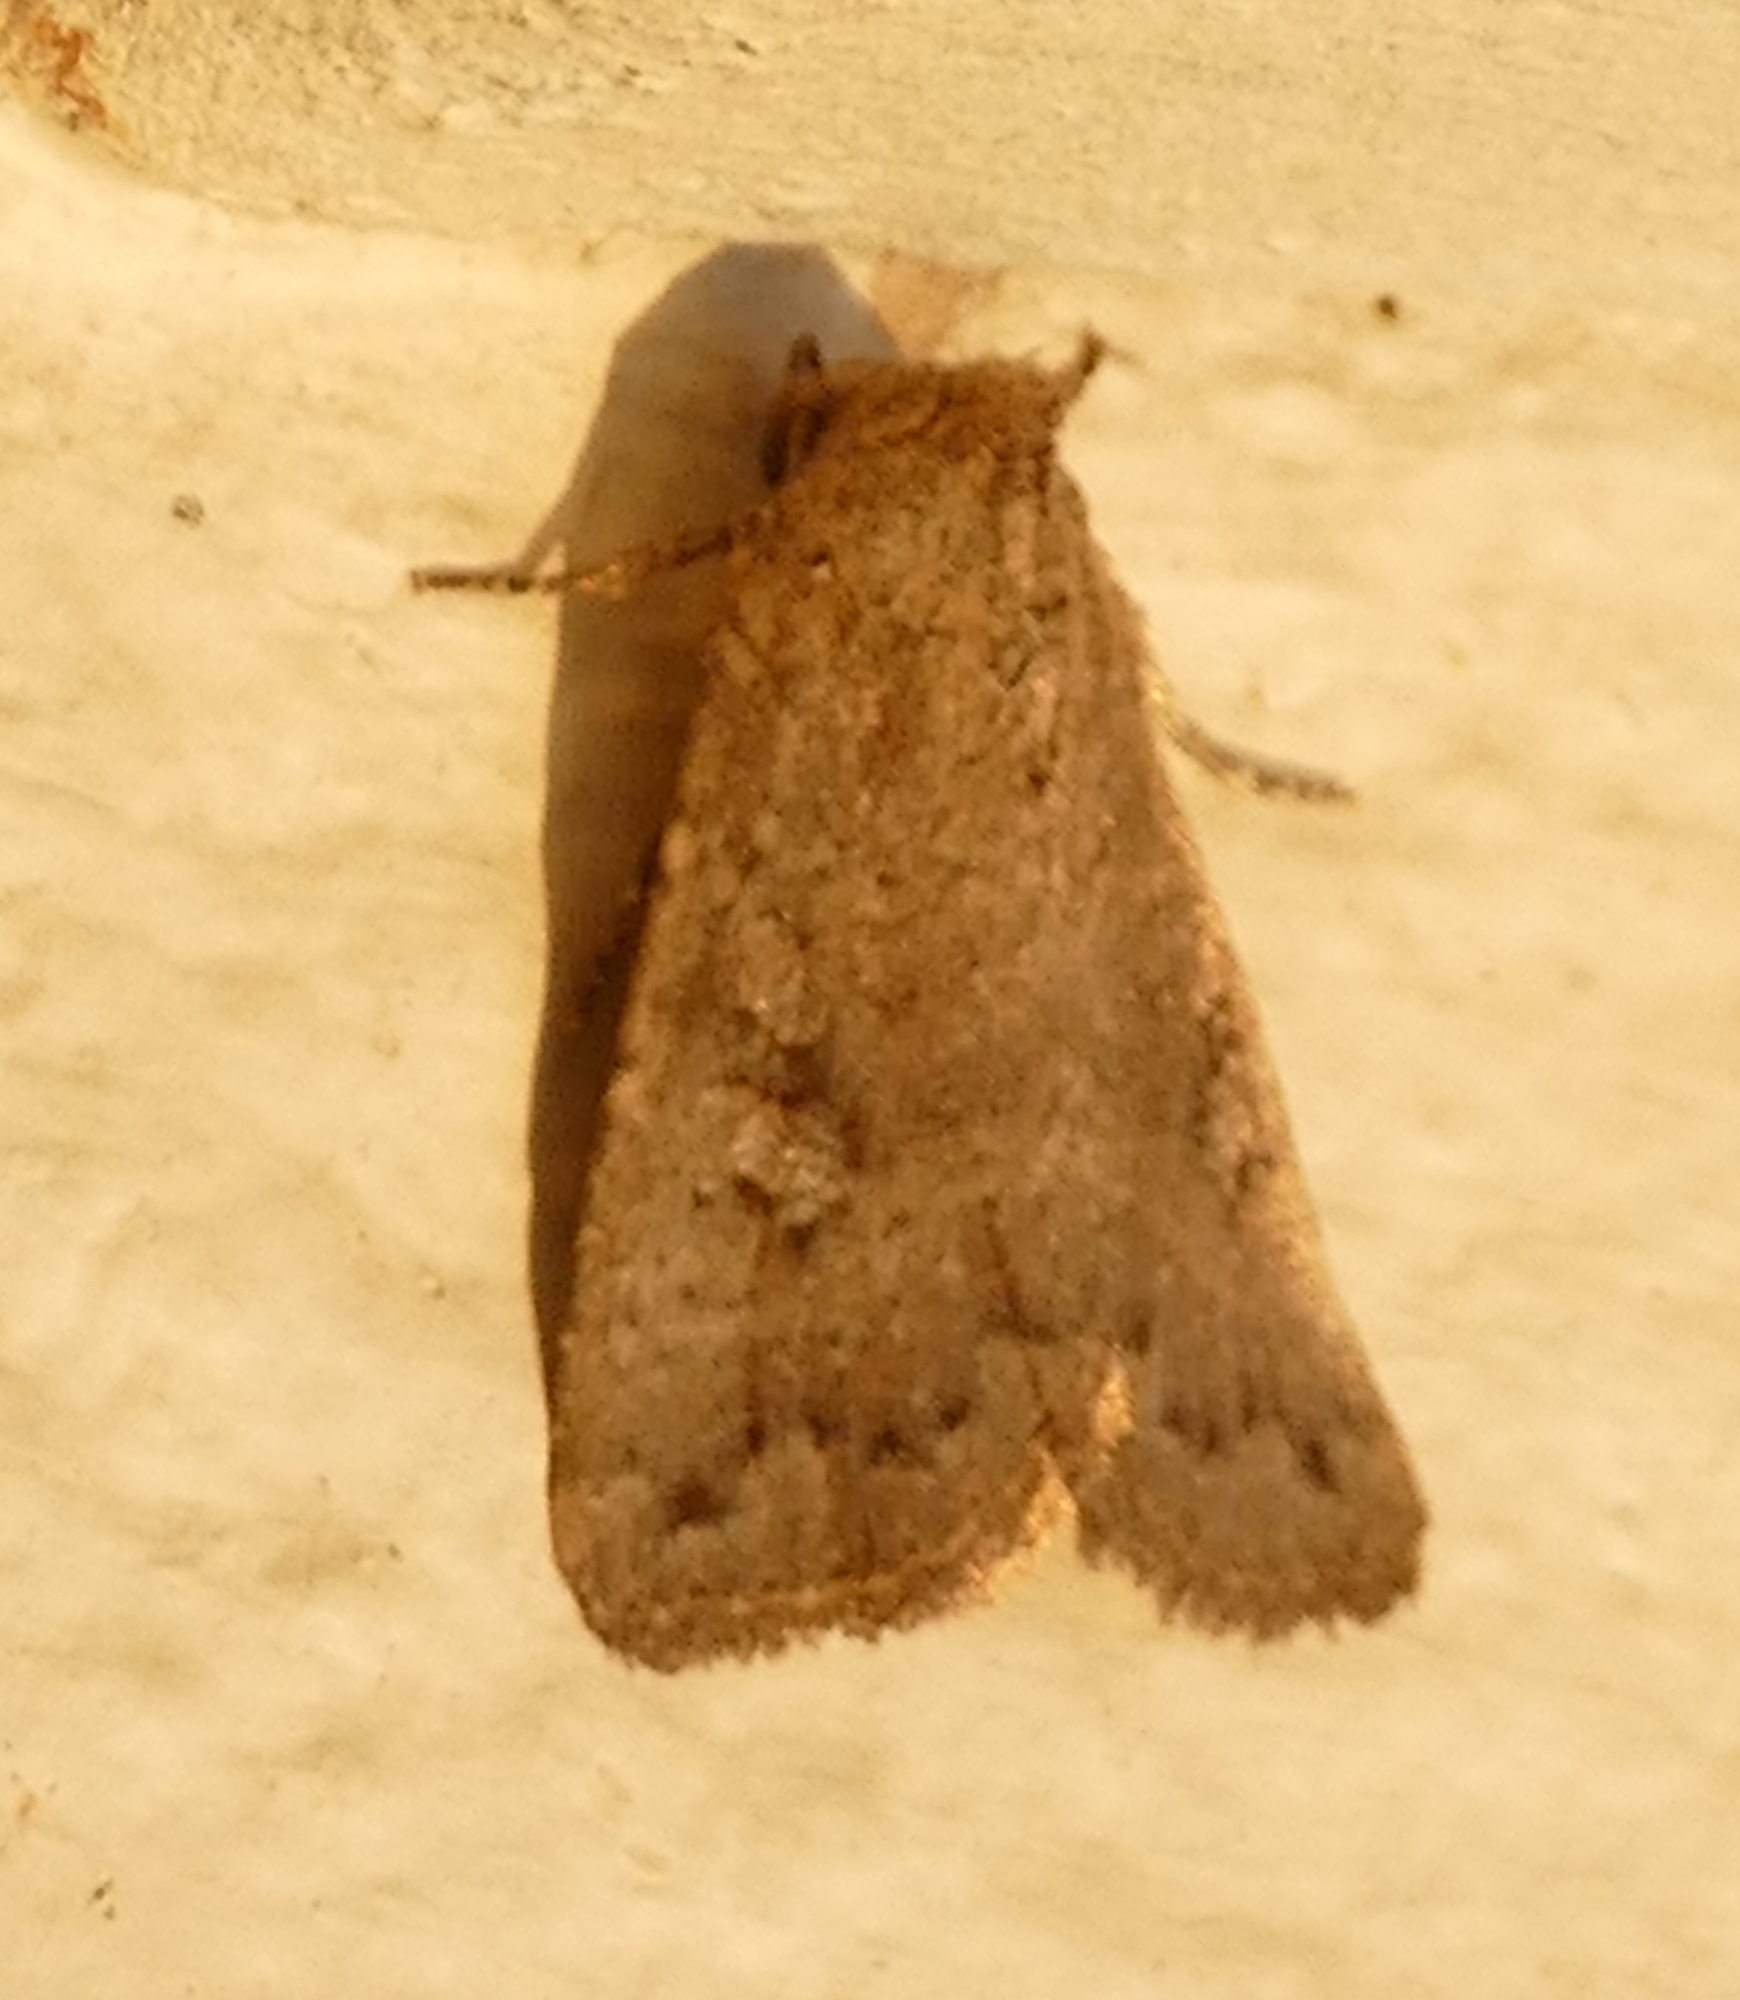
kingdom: Animalia
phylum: Arthropoda
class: Insecta
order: Lepidoptera
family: Noctuidae
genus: Condica
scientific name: Condica sutor
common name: Cobbler moth
